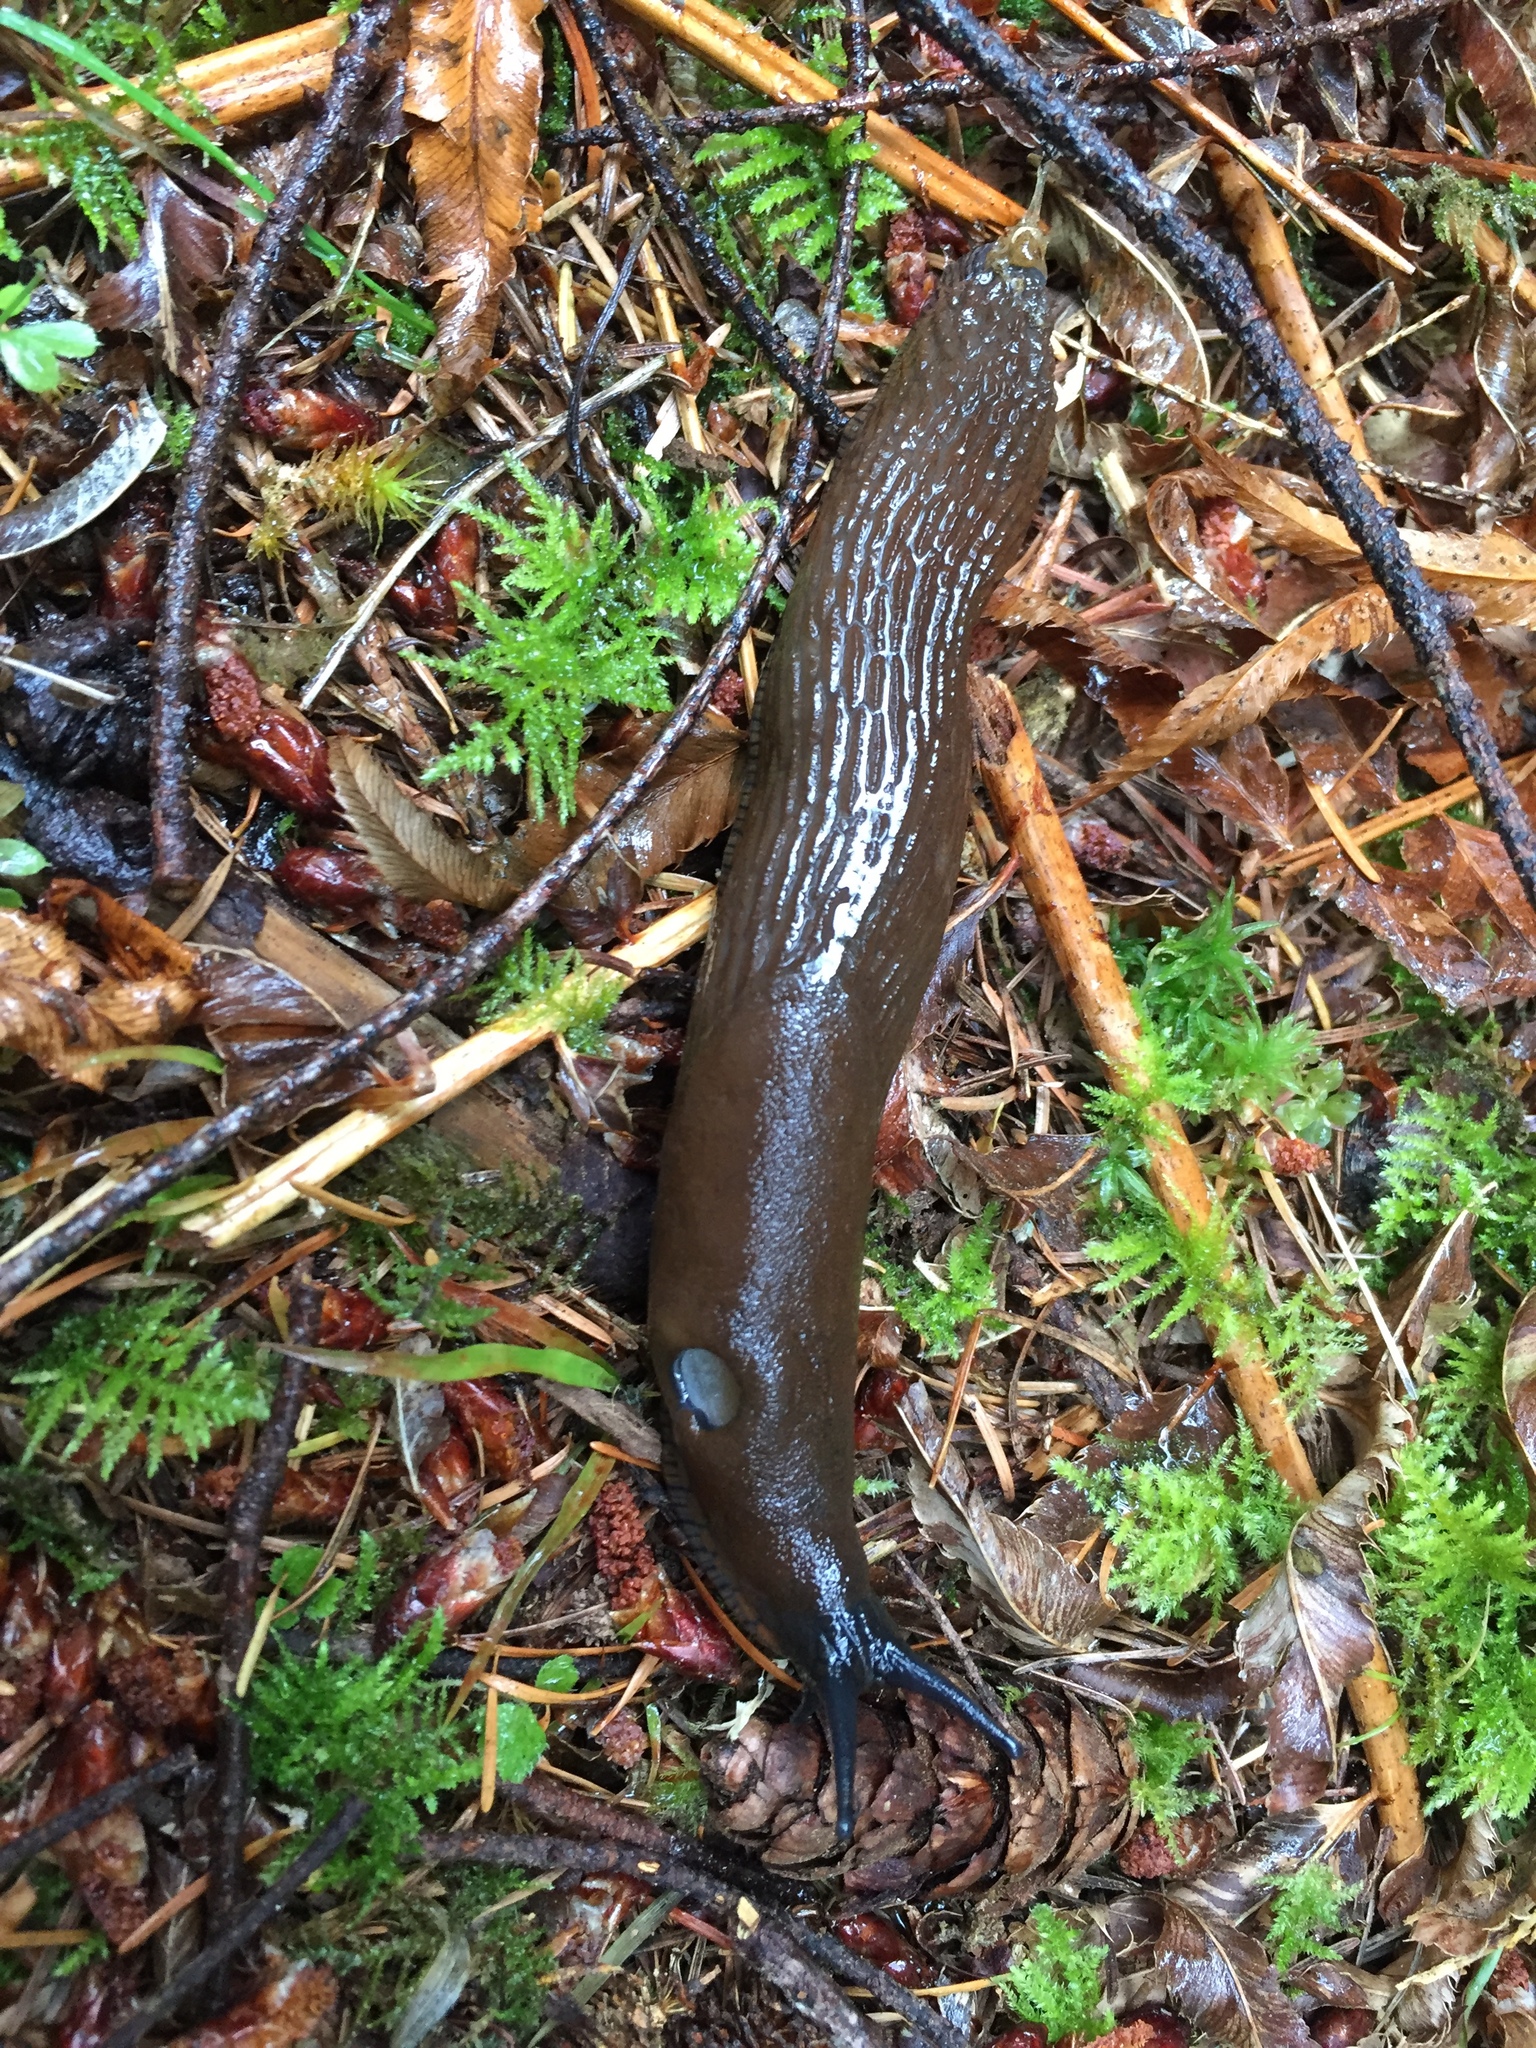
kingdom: Animalia
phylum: Mollusca
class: Gastropoda
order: Stylommatophora
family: Arionidae
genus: Arion
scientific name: Arion rufus
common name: Chocolate arion
